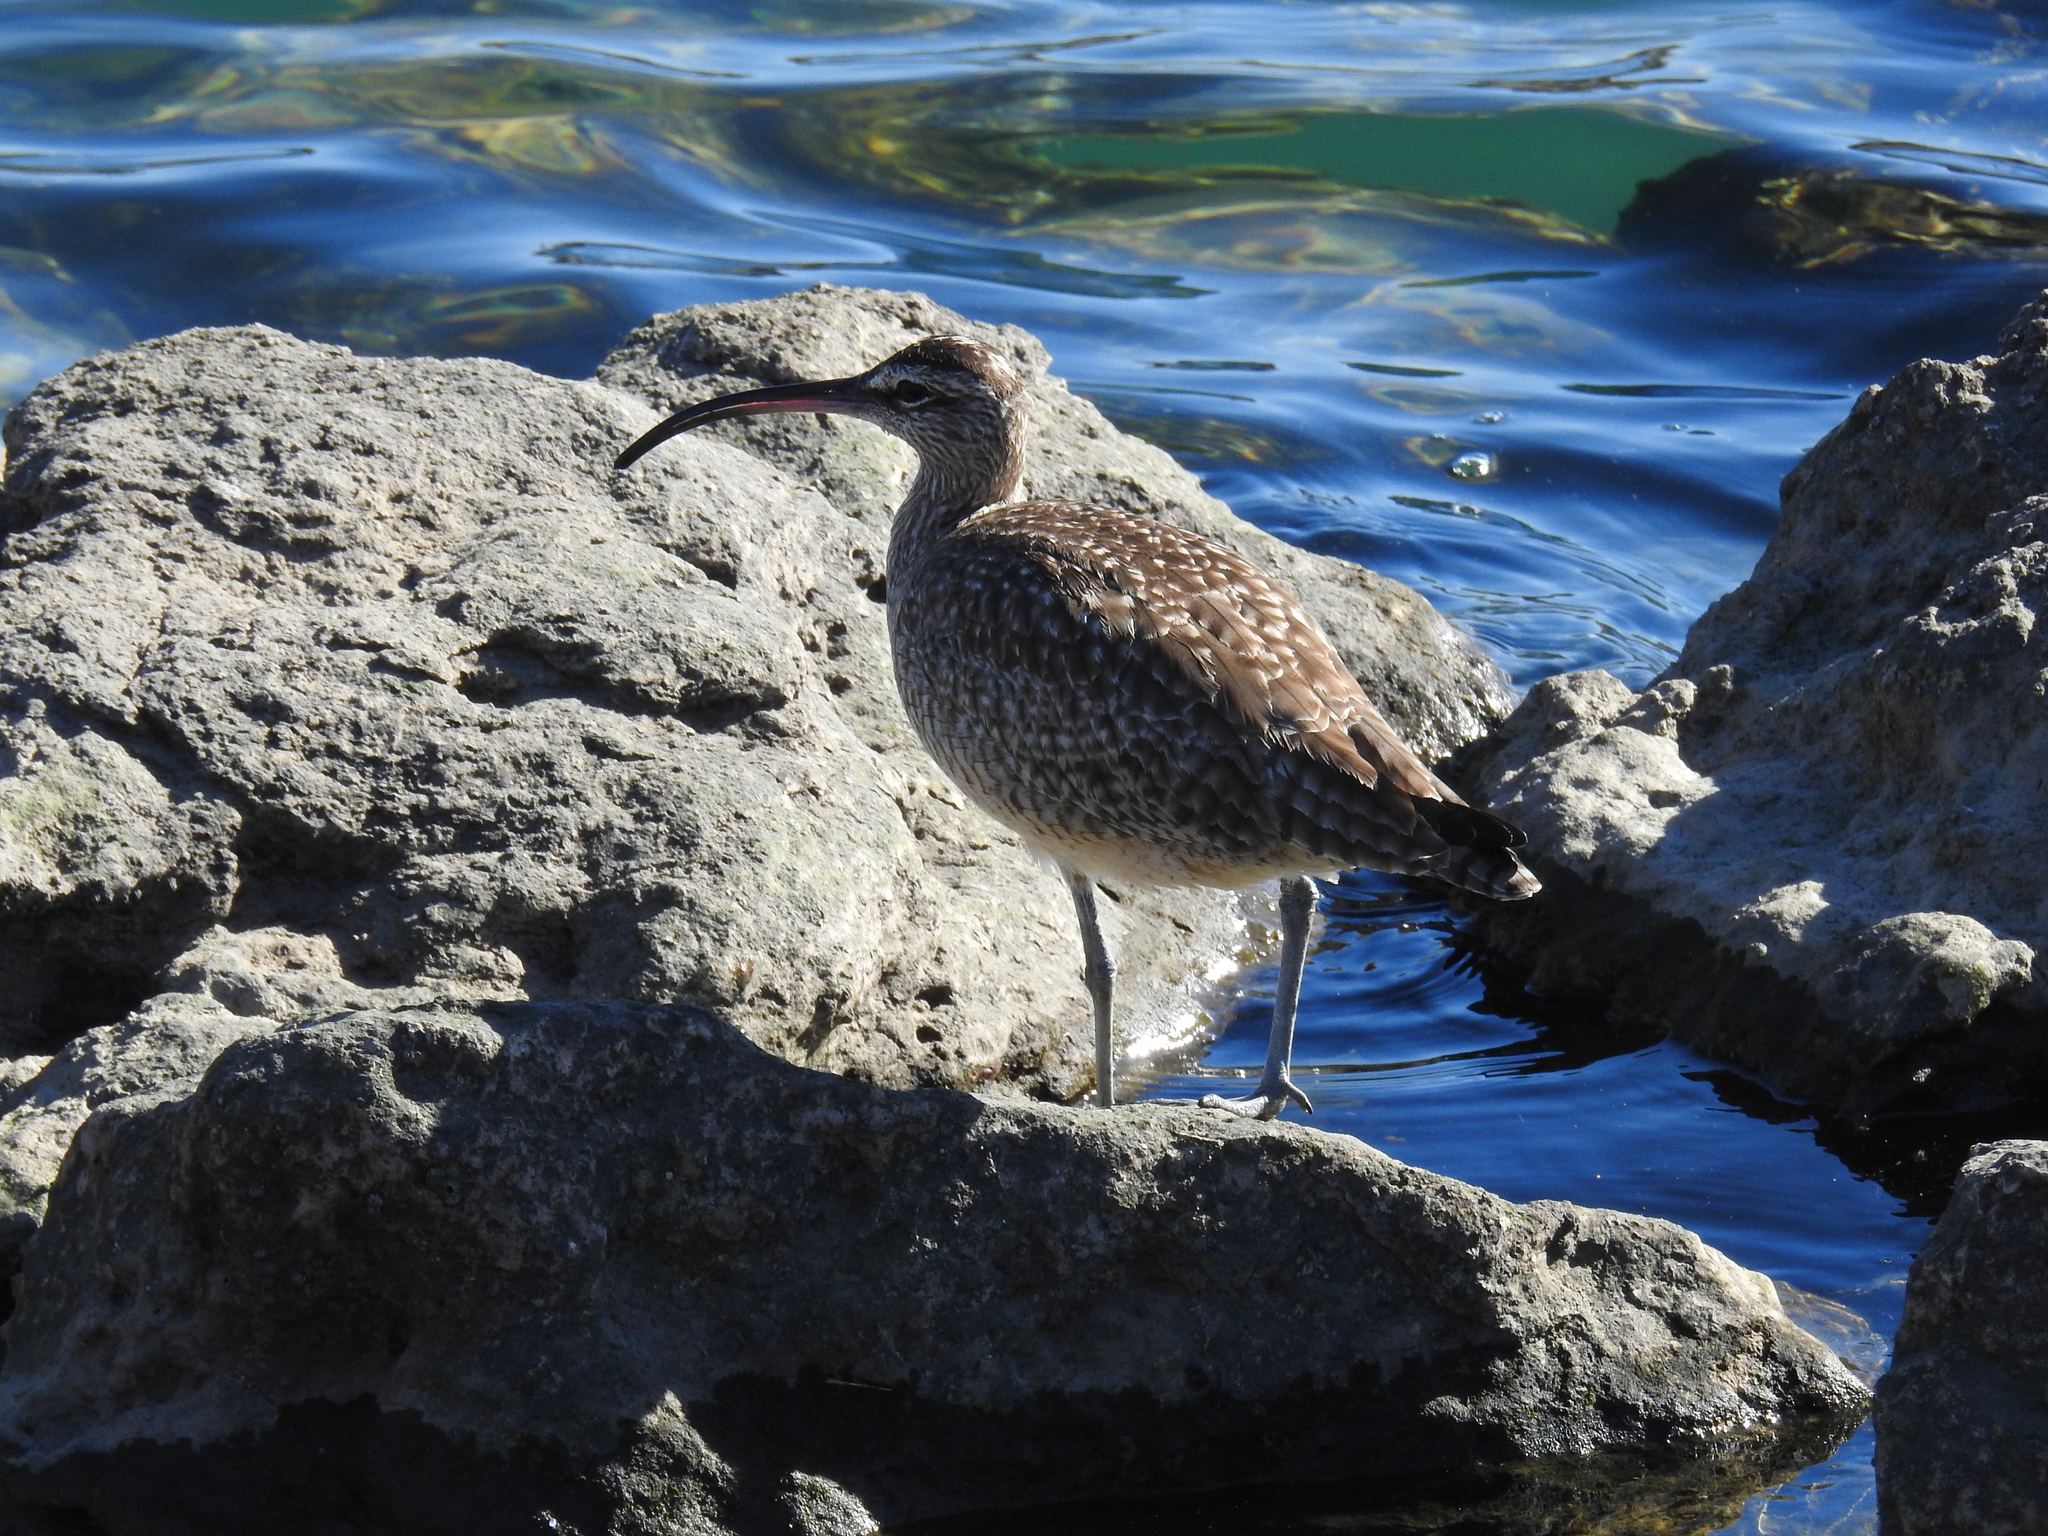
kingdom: Animalia
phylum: Chordata
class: Aves
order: Charadriiformes
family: Scolopacidae
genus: Numenius
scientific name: Numenius phaeopus
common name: Whimbrel
